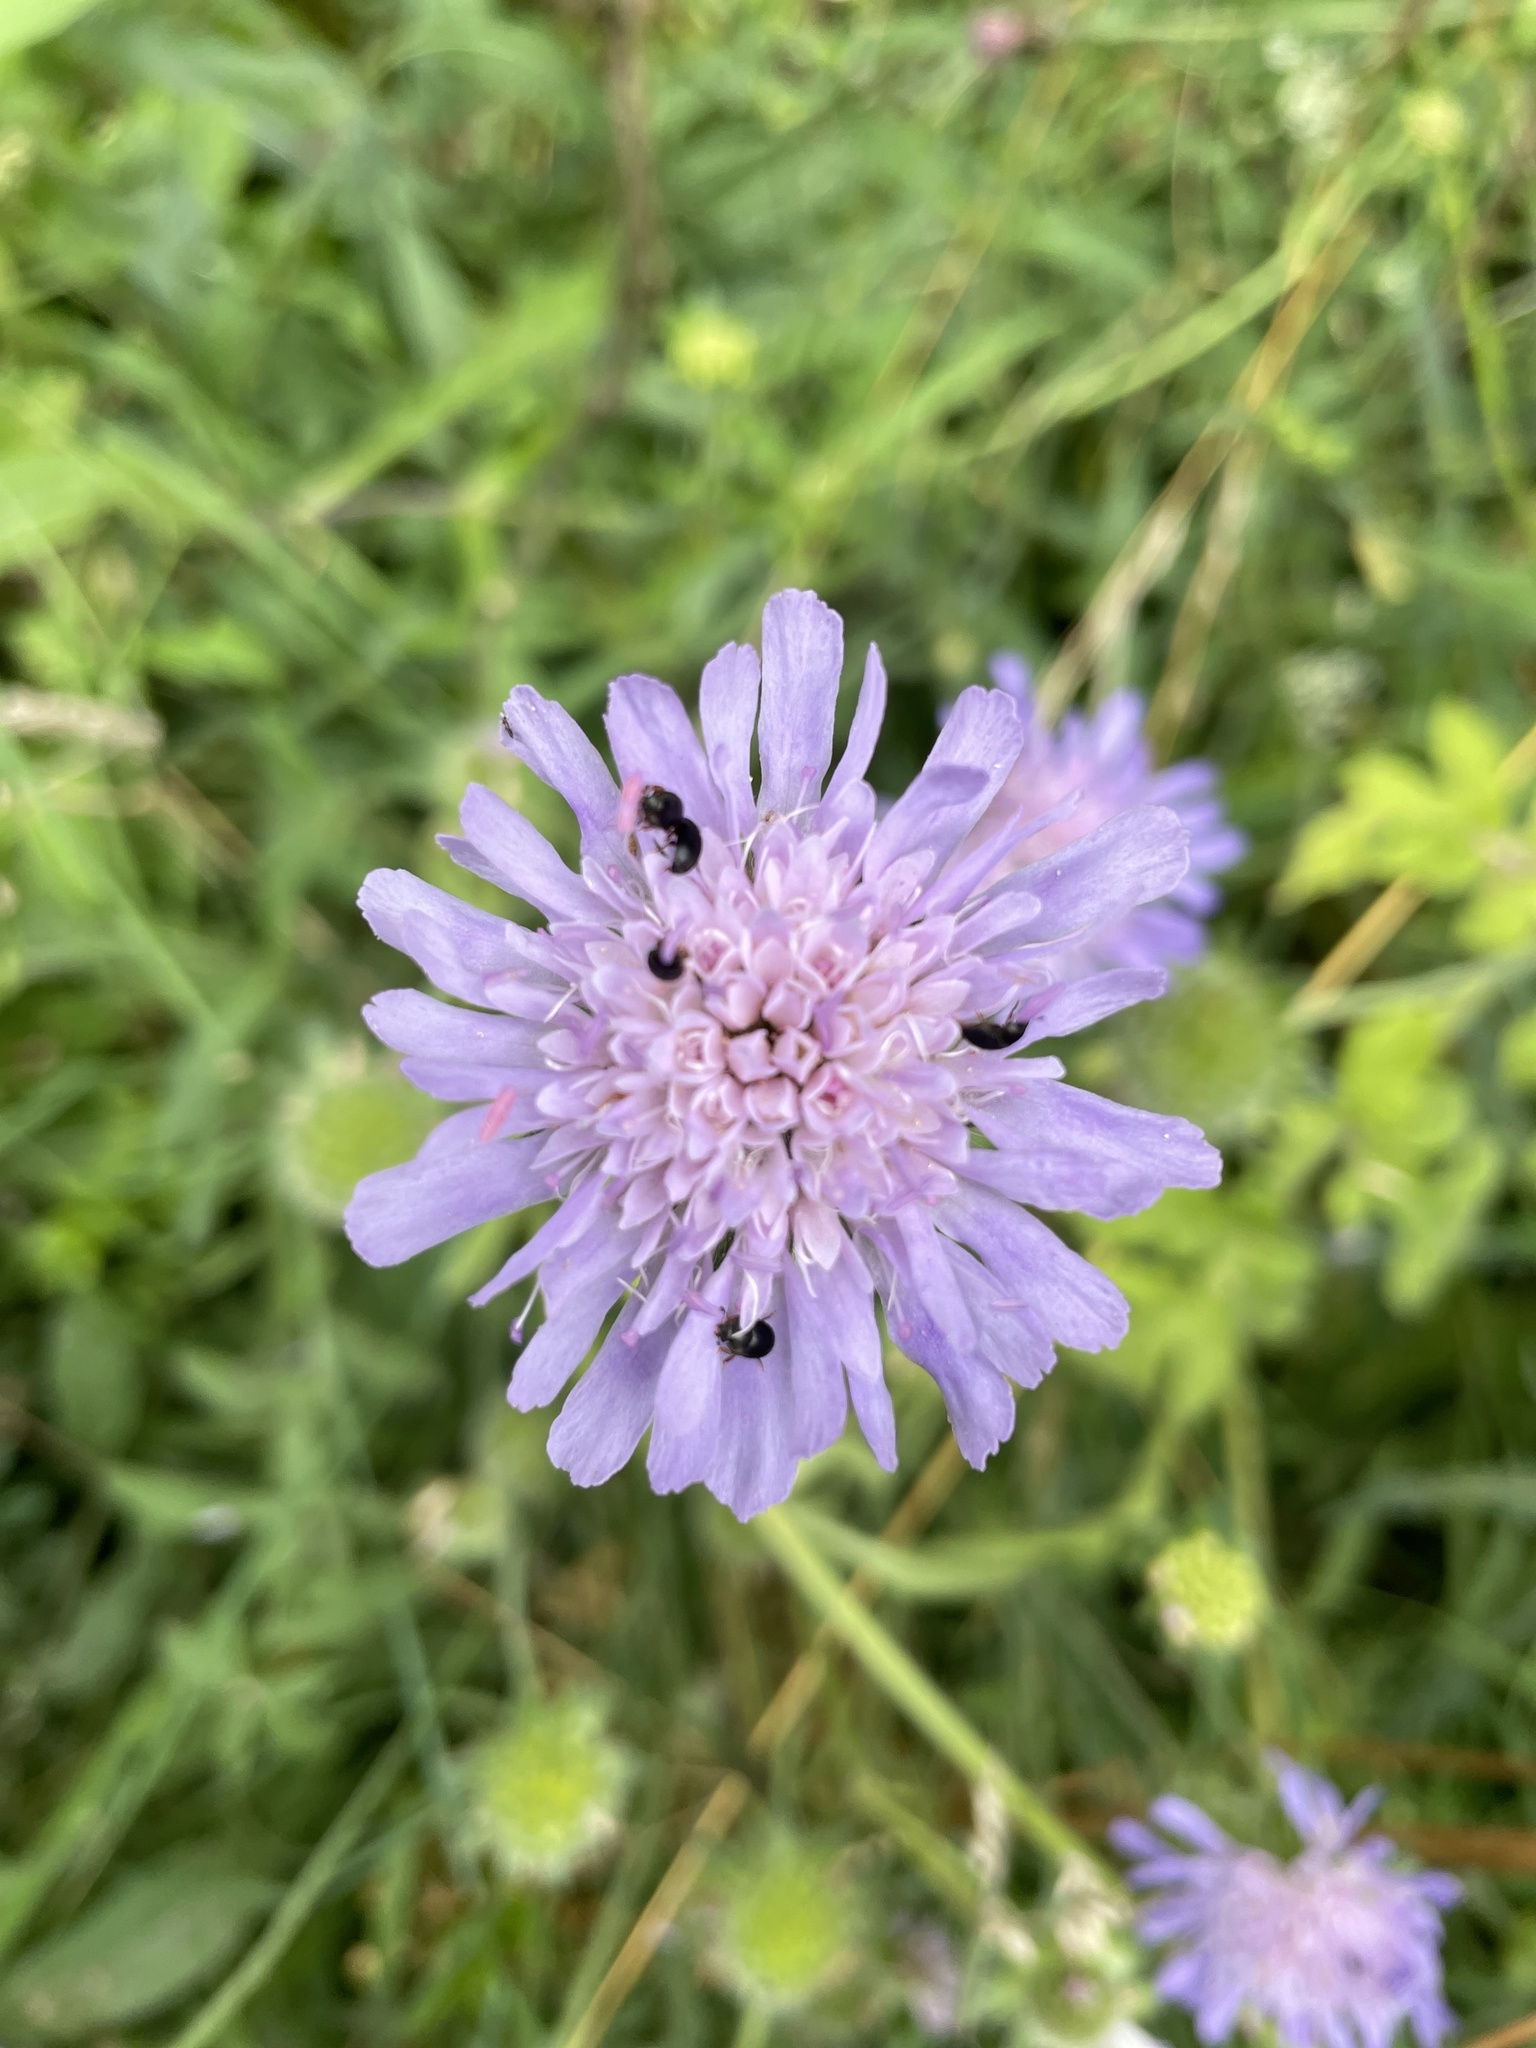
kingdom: Plantae
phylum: Tracheophyta
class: Magnoliopsida
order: Dipsacales
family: Caprifoliaceae
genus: Knautia
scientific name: Knautia arvensis
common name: Field scabiosa
